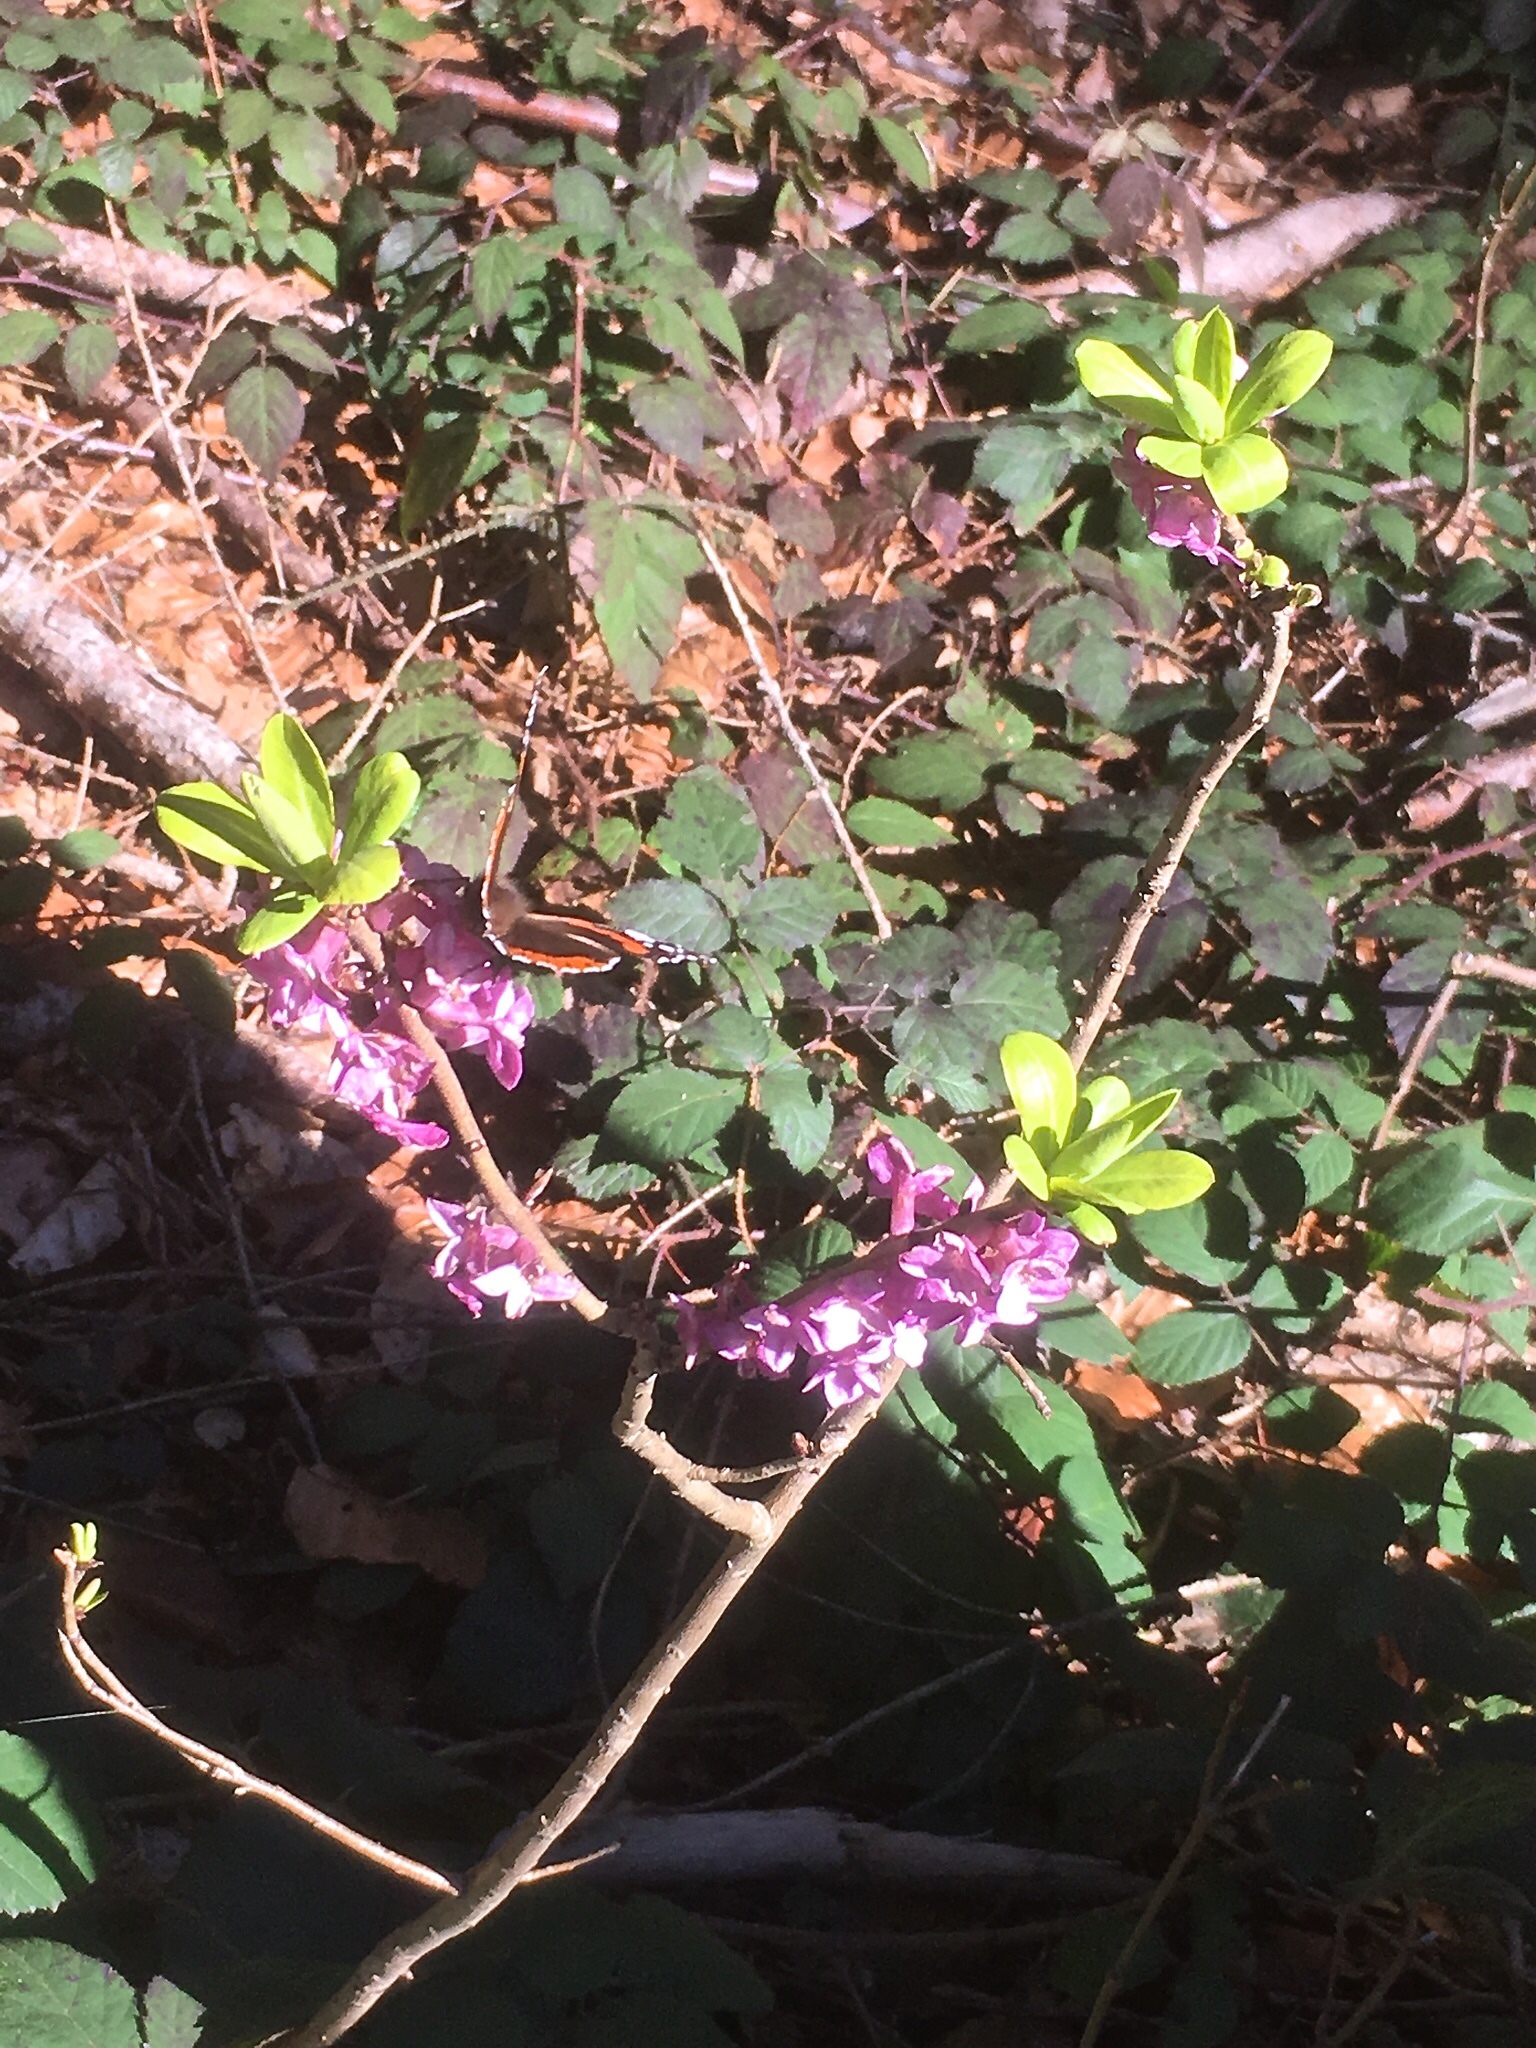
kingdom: Plantae
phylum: Tracheophyta
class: Magnoliopsida
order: Malvales
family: Thymelaeaceae
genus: Daphne
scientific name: Daphne mezereum
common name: Mezereon
